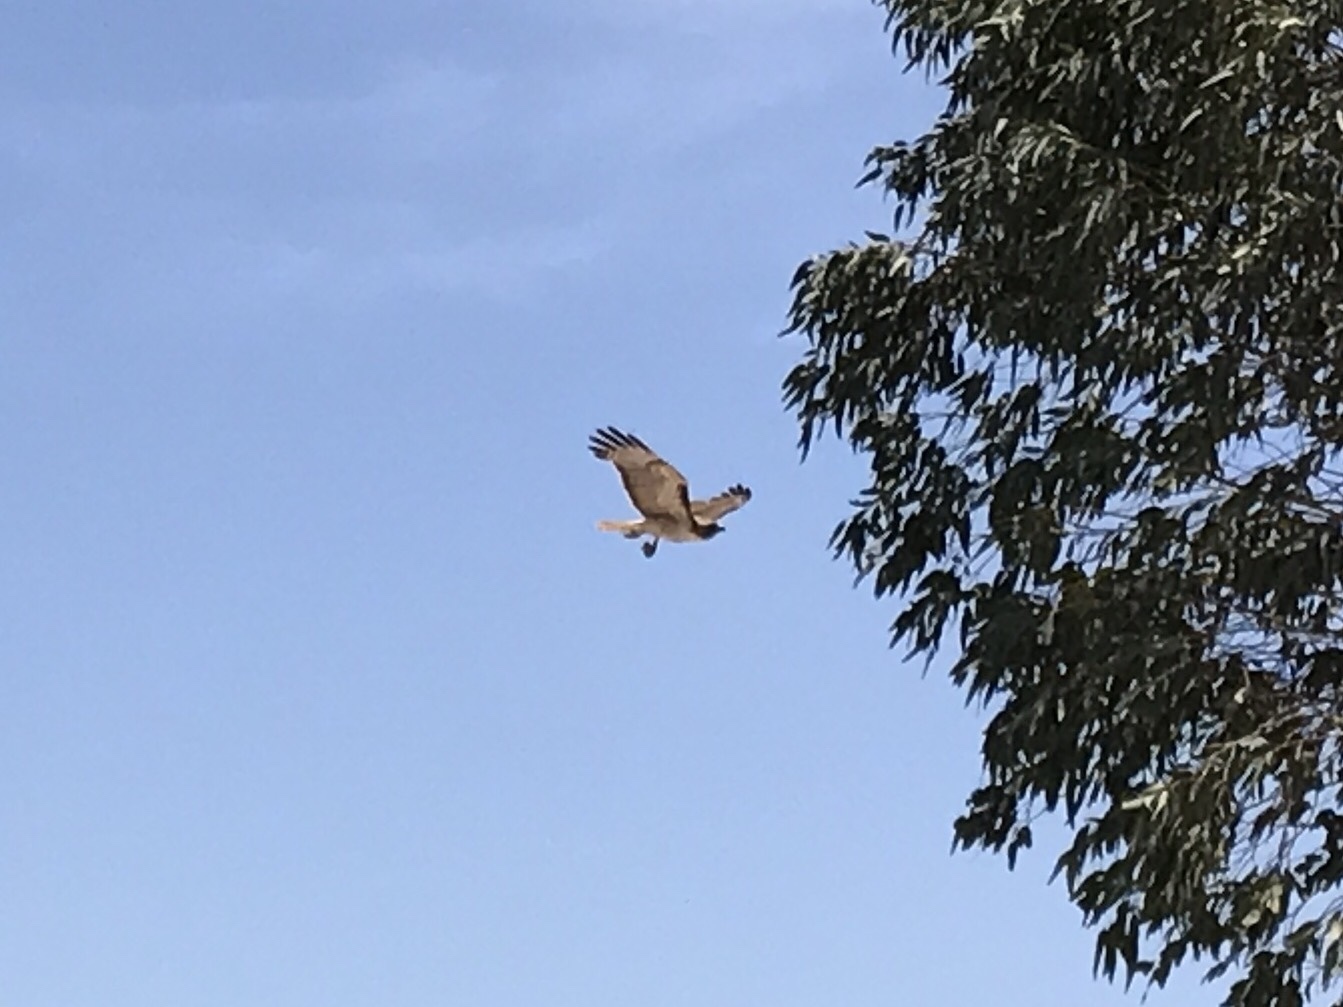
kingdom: Animalia
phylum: Chordata
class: Aves
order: Accipitriformes
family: Accipitridae
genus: Buteo
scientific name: Buteo jamaicensis
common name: Red-tailed hawk
